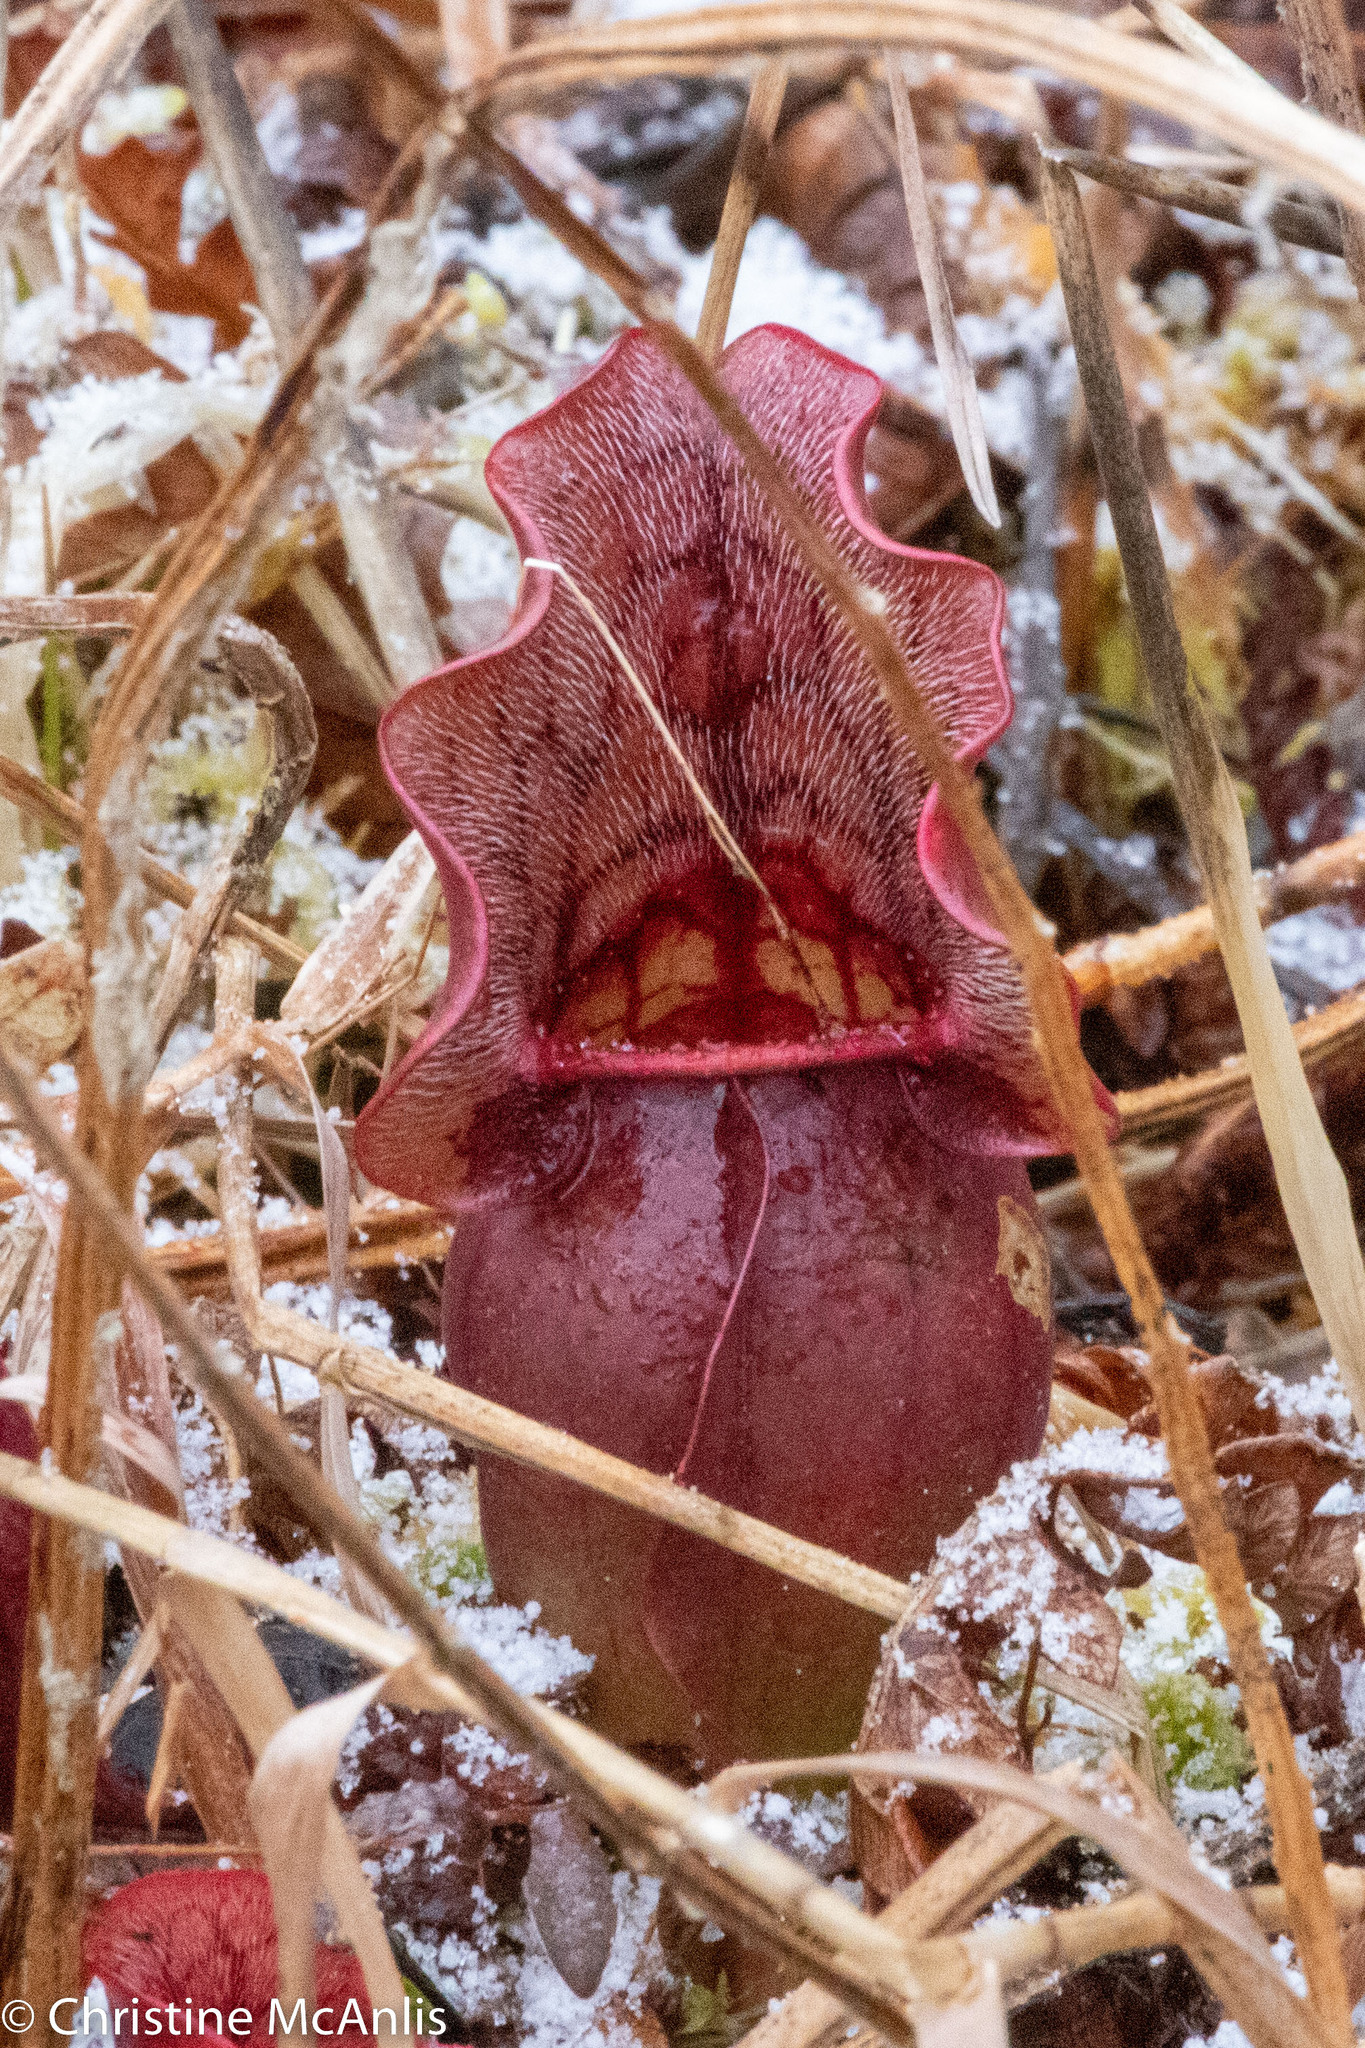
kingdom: Plantae
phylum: Tracheophyta
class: Magnoliopsida
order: Ericales
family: Sarraceniaceae
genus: Sarracenia
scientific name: Sarracenia purpurea
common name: Pitcherplant
